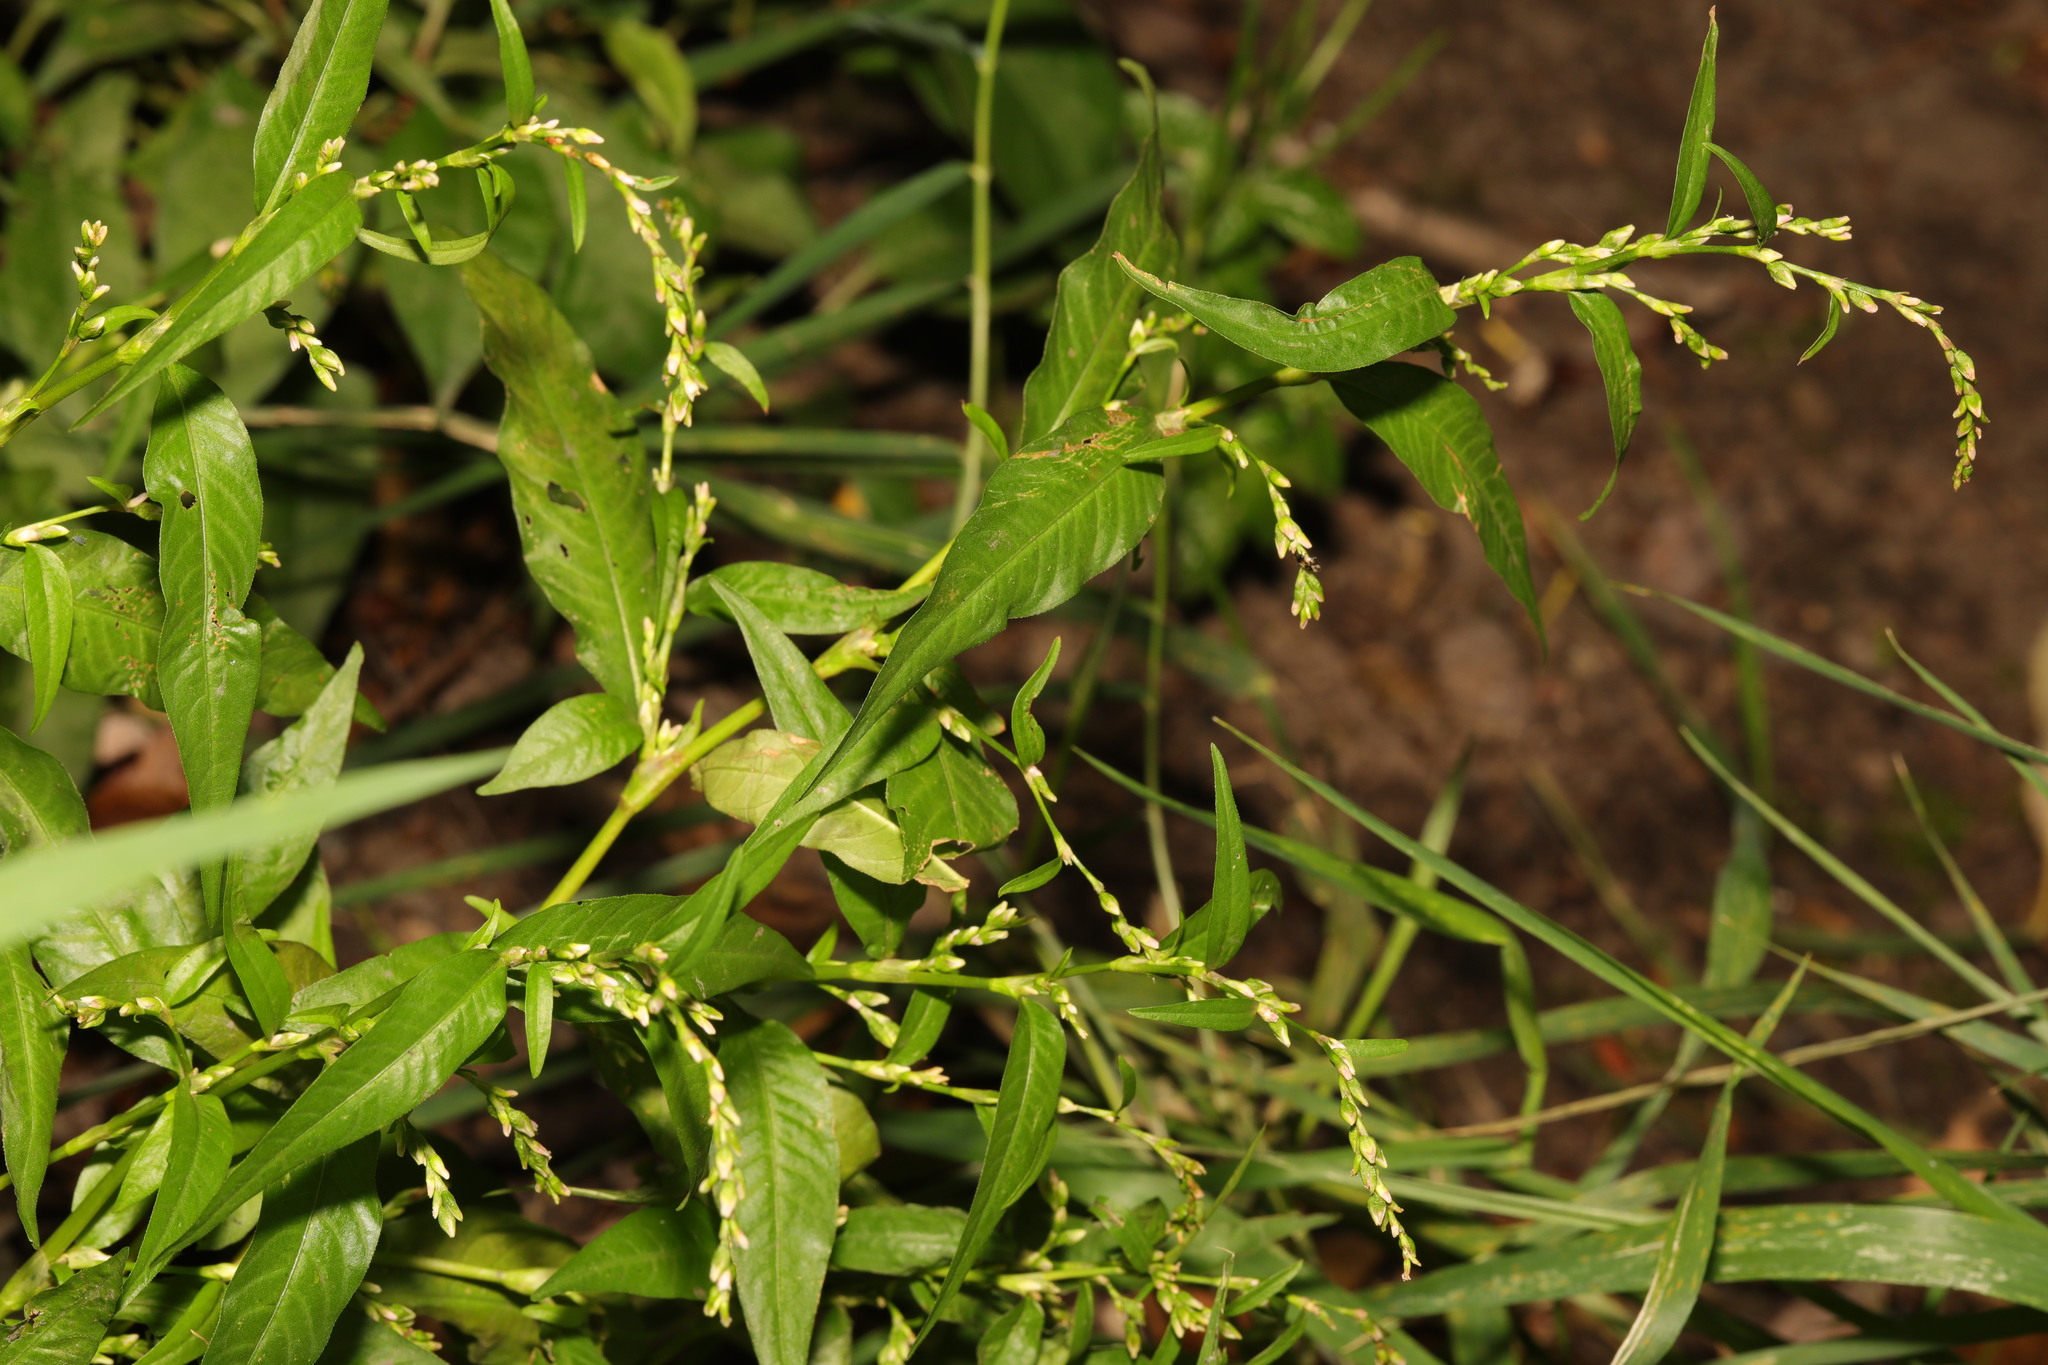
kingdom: Plantae
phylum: Tracheophyta
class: Magnoliopsida
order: Caryophyllales
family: Polygonaceae
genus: Persicaria
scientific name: Persicaria hydropiper
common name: Water-pepper
